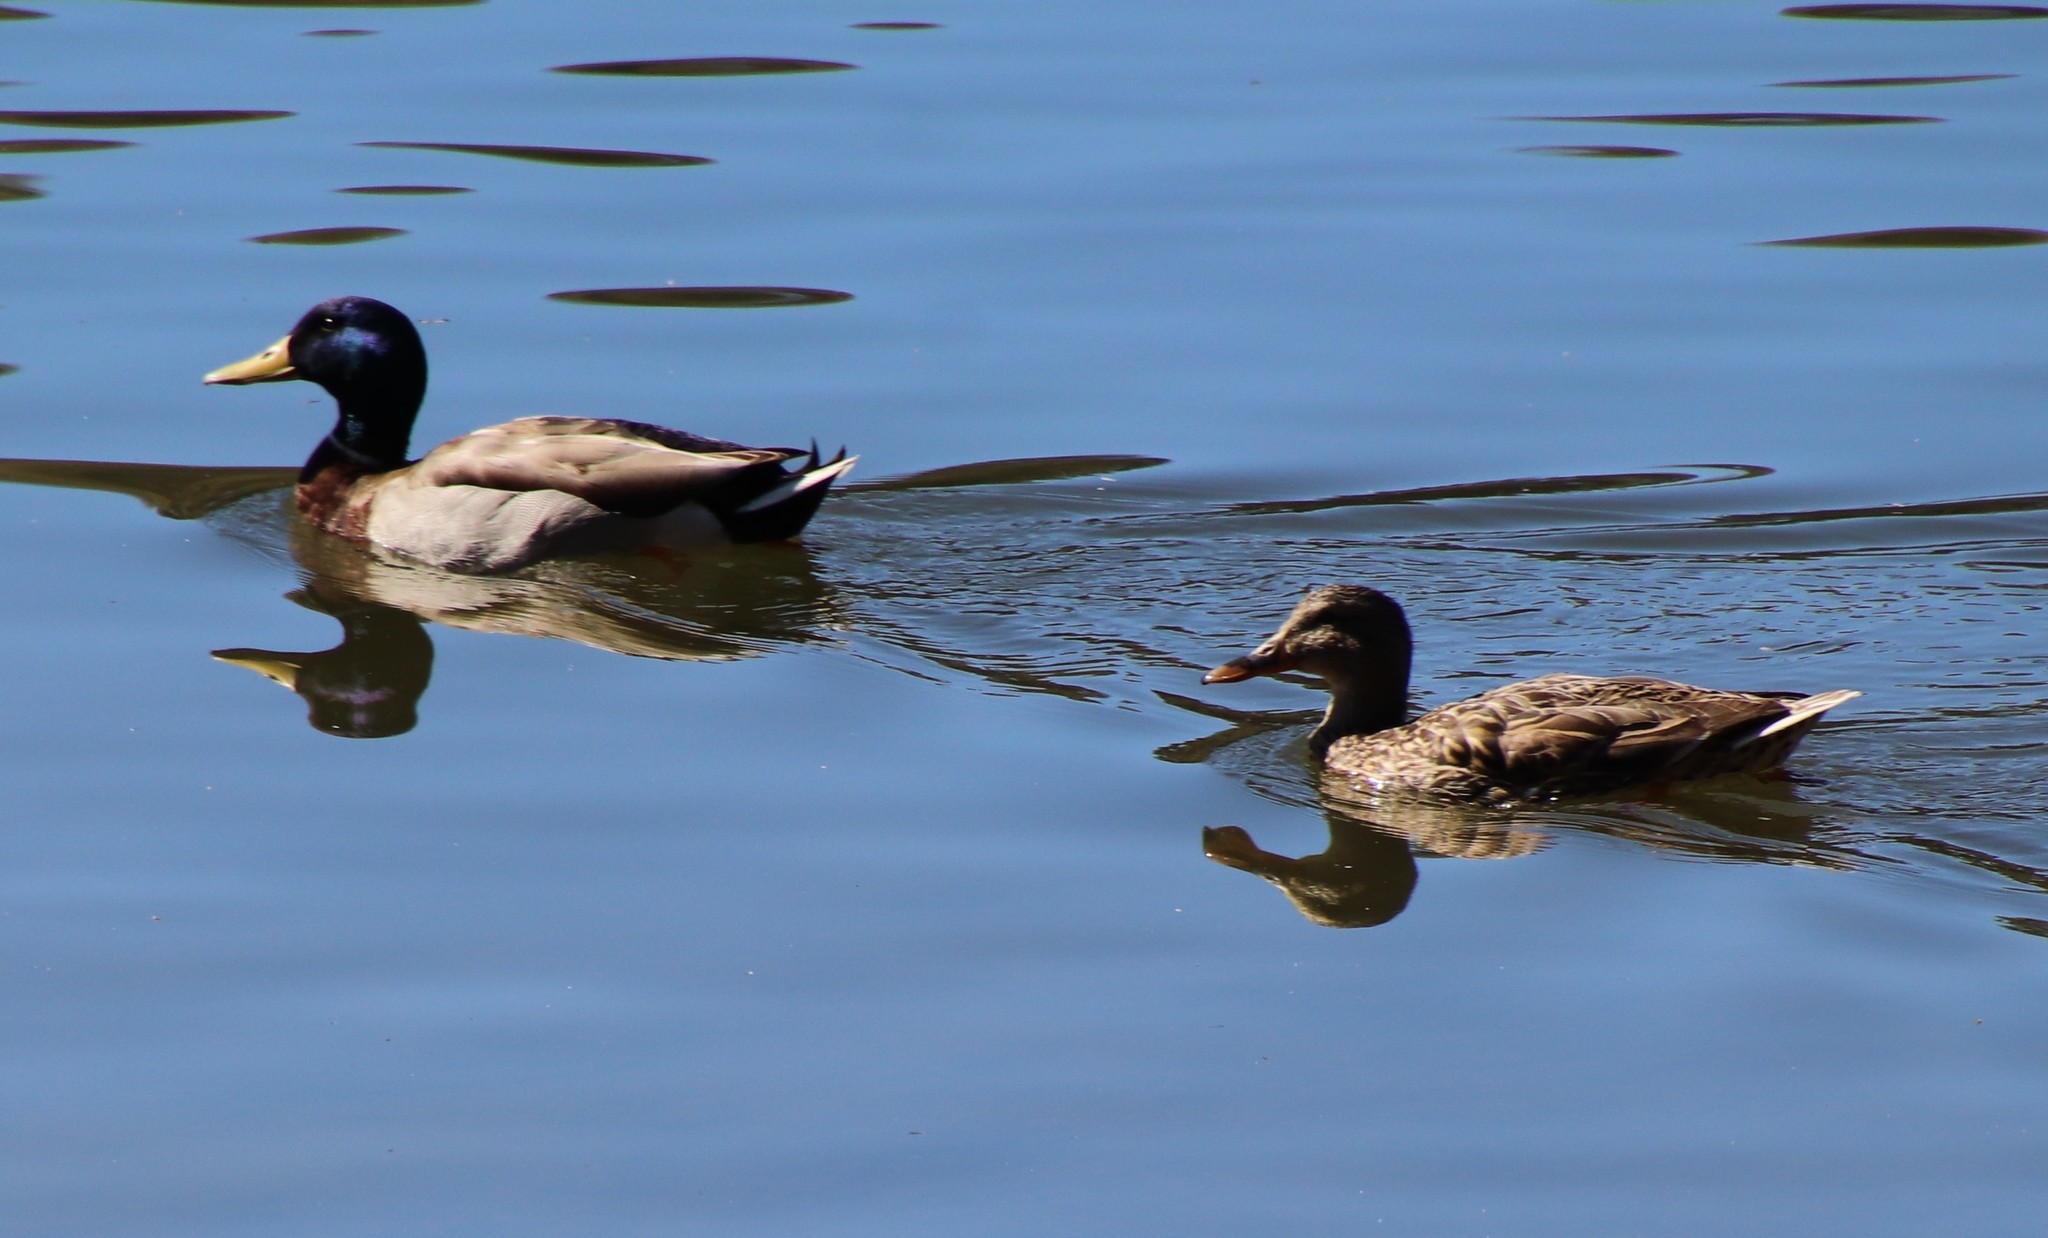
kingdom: Animalia
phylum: Chordata
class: Aves
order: Anseriformes
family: Anatidae
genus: Anas
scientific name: Anas platyrhynchos
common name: Mallard
